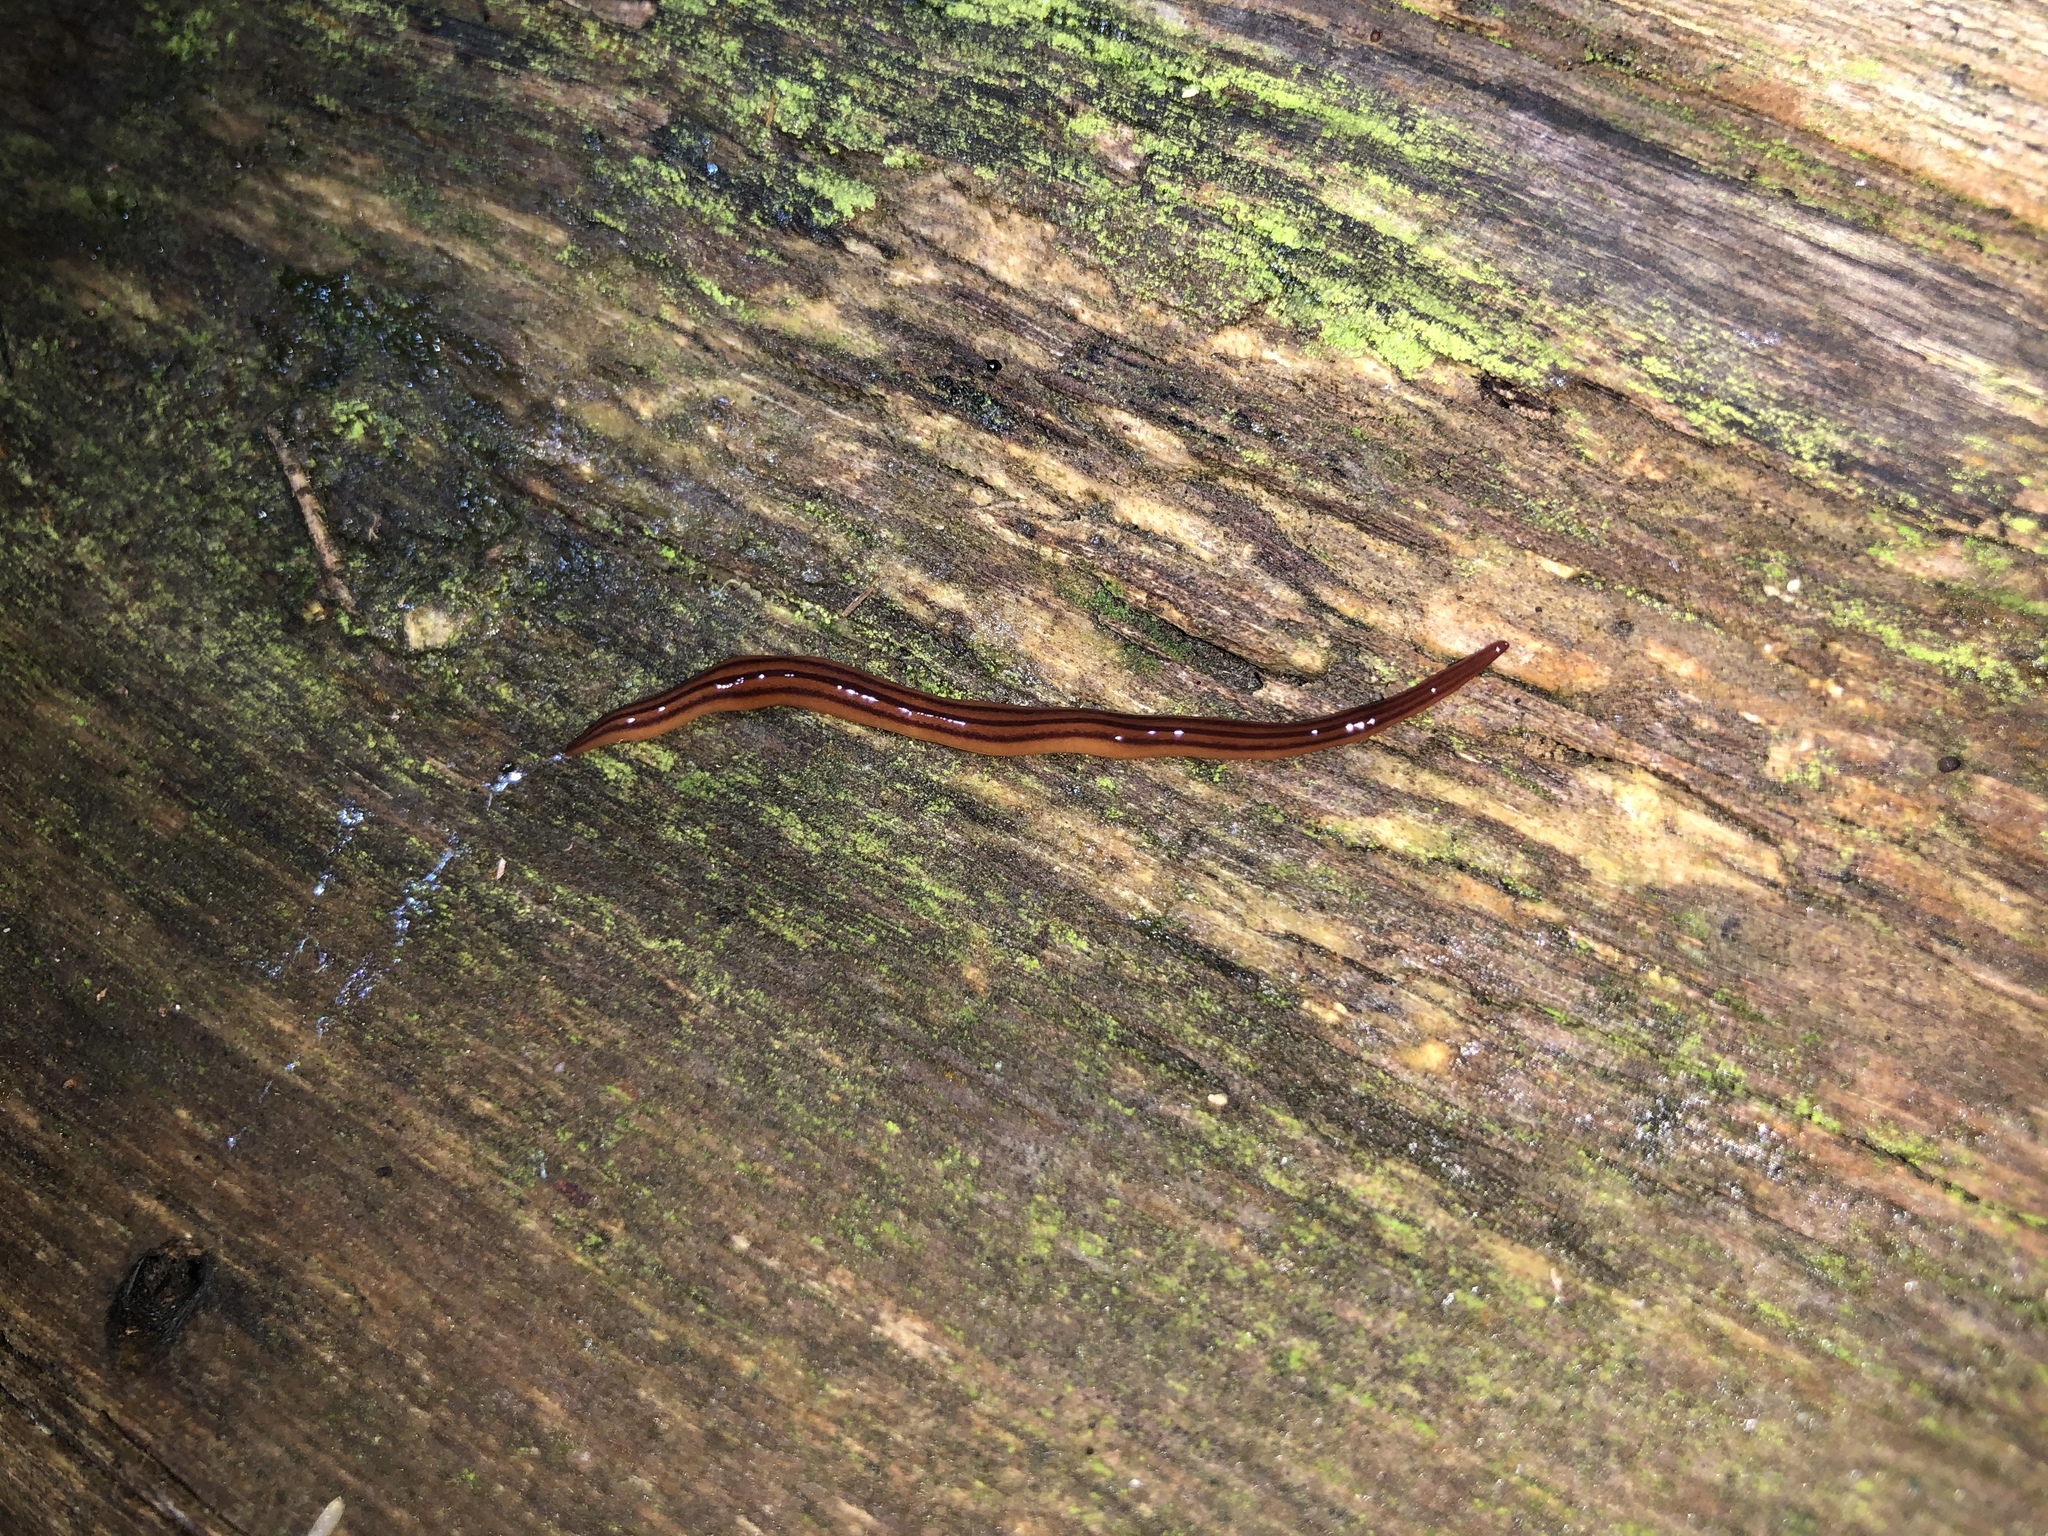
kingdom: Animalia
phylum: Platyhelminthes
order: Tricladida
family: Geoplanidae
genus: Anzoplana
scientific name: Anzoplana trilineata
